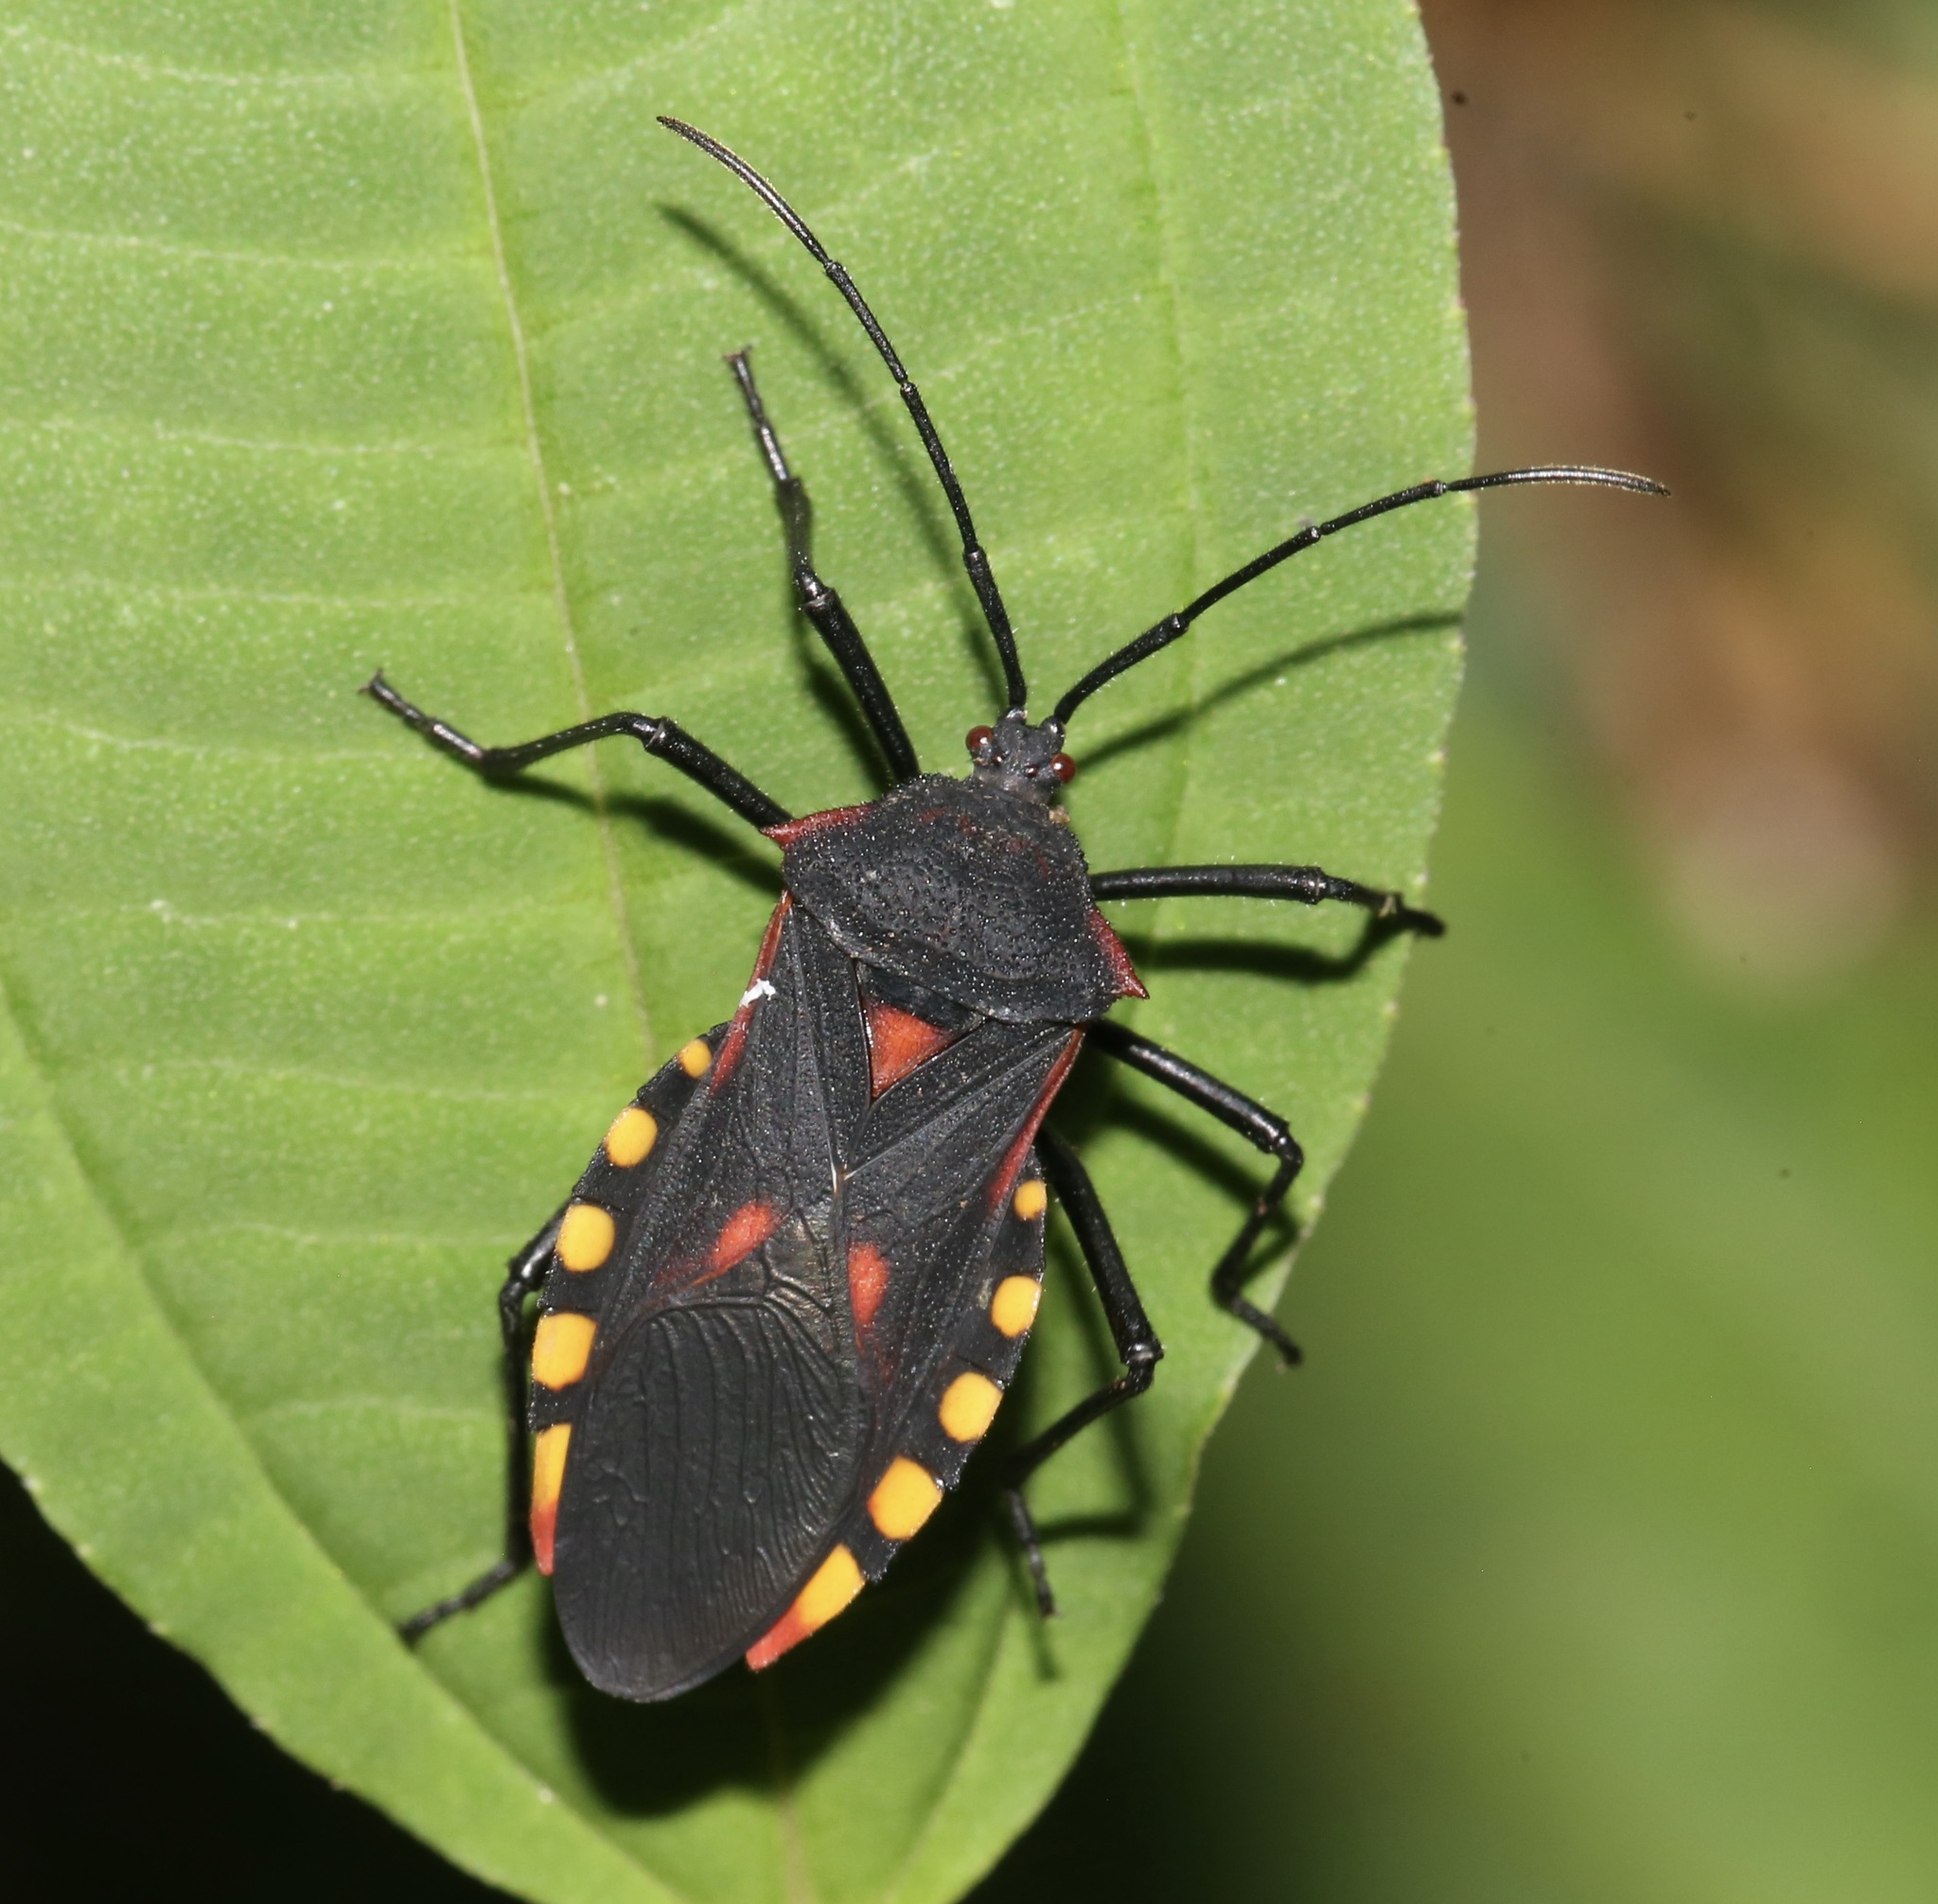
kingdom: Animalia
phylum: Arthropoda
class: Insecta
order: Hemiptera
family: Coreidae
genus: Sephina
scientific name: Sephina pustulata
